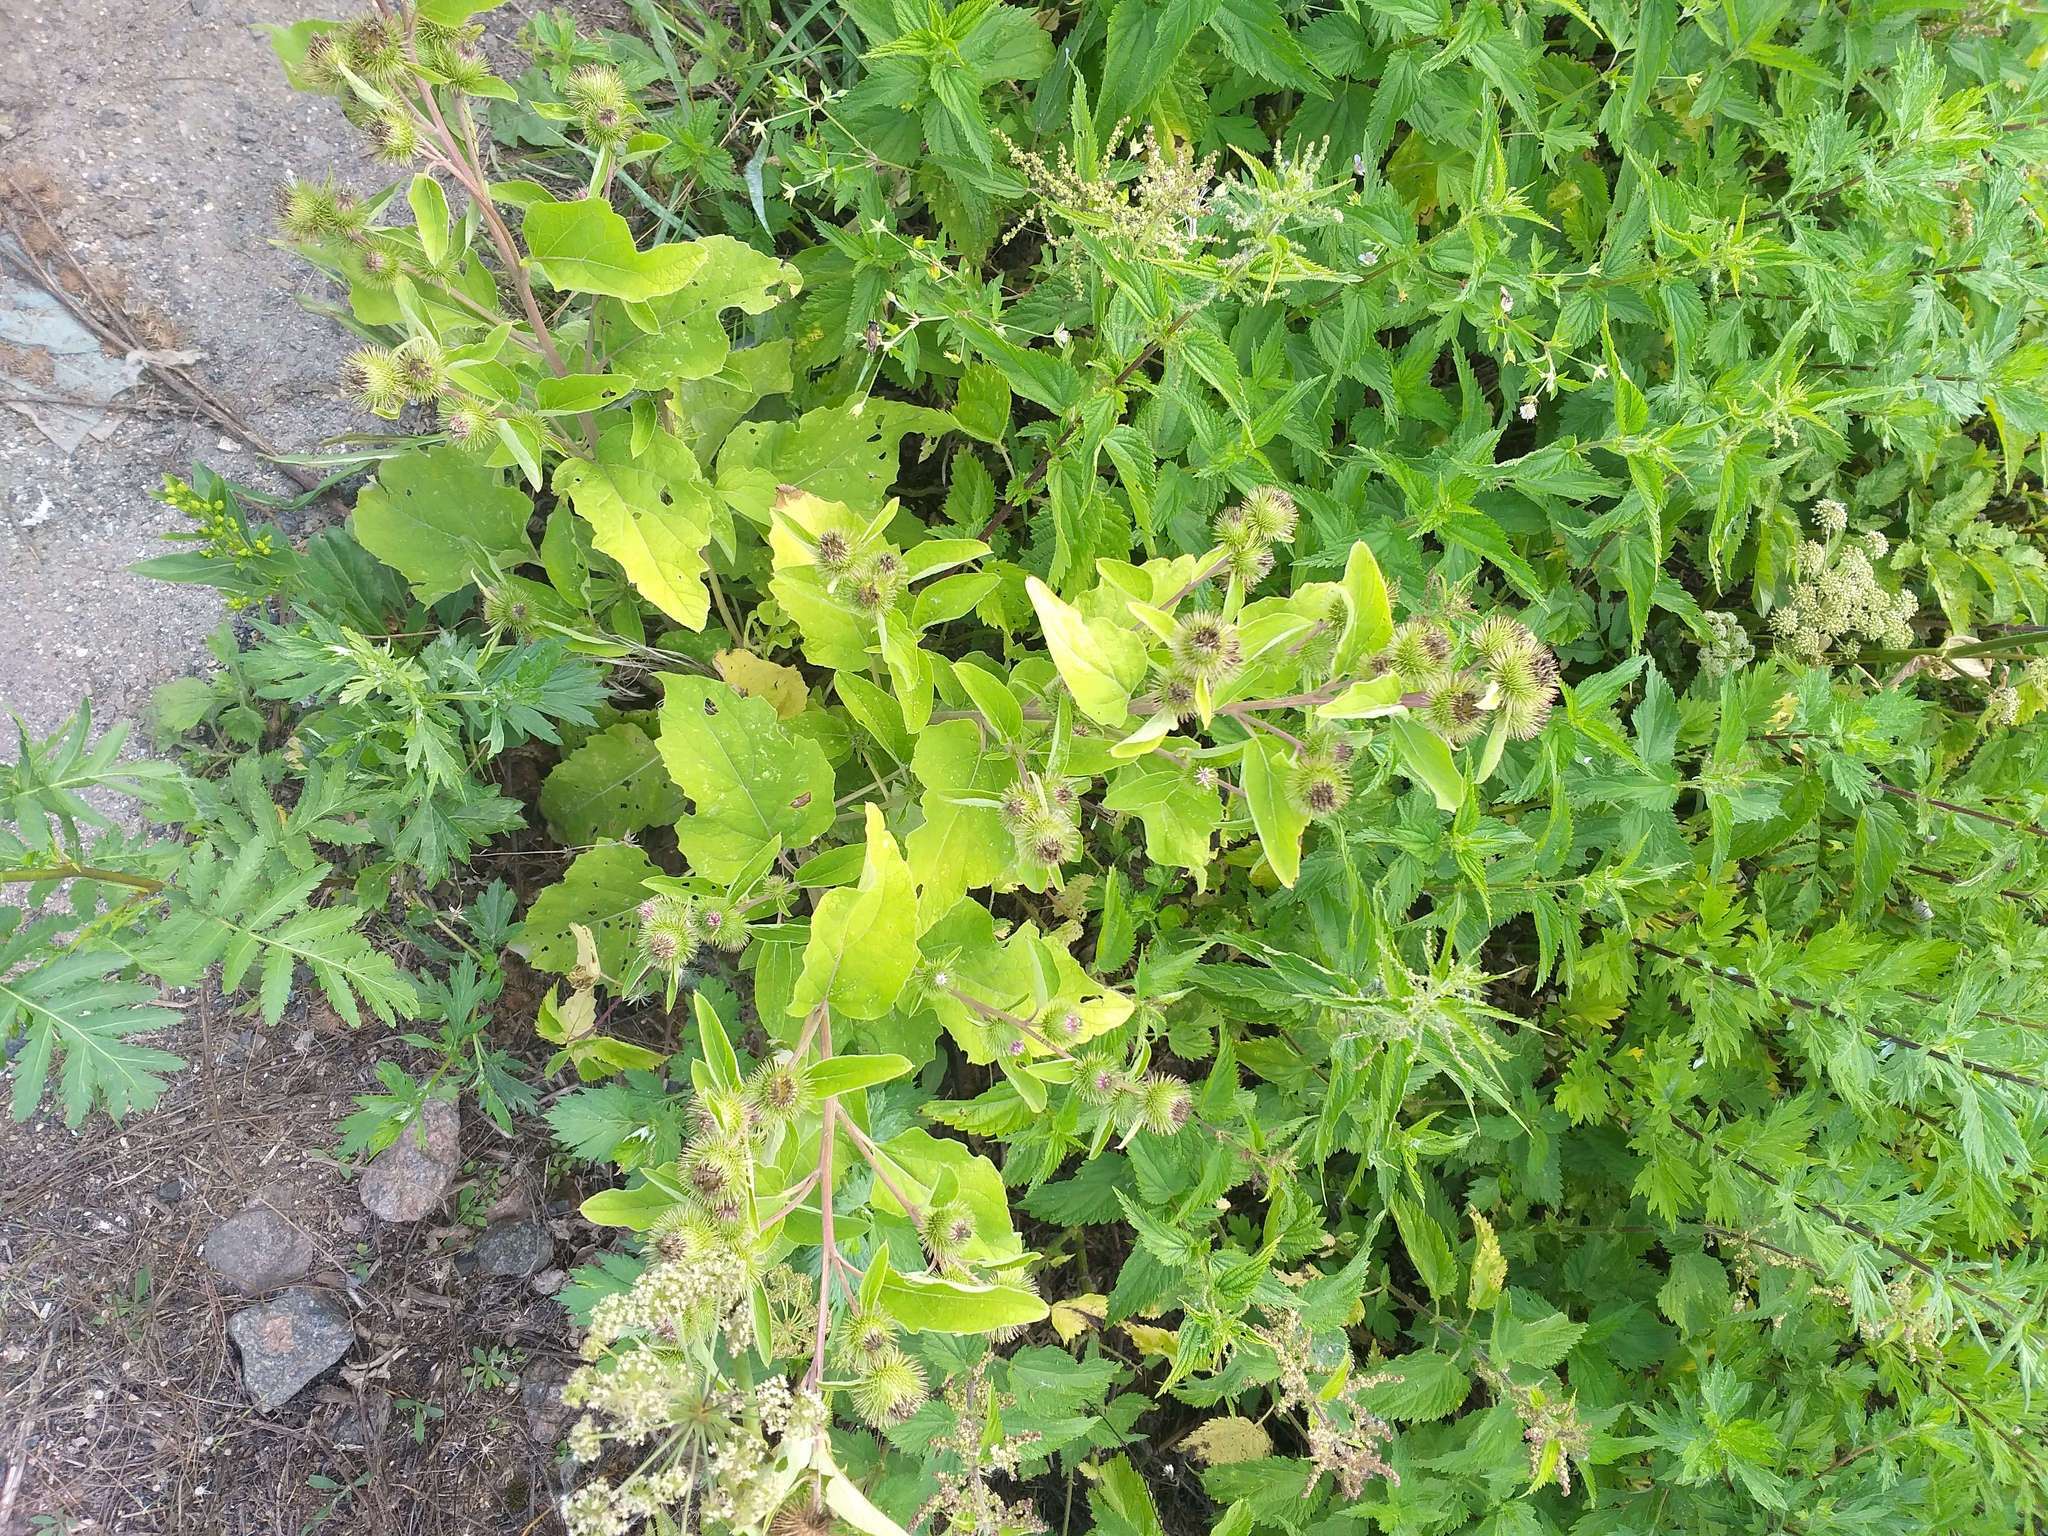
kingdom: Plantae
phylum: Tracheophyta
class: Magnoliopsida
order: Asterales
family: Asteraceae
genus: Arctium
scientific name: Arctium minus
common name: Lesser burdock
